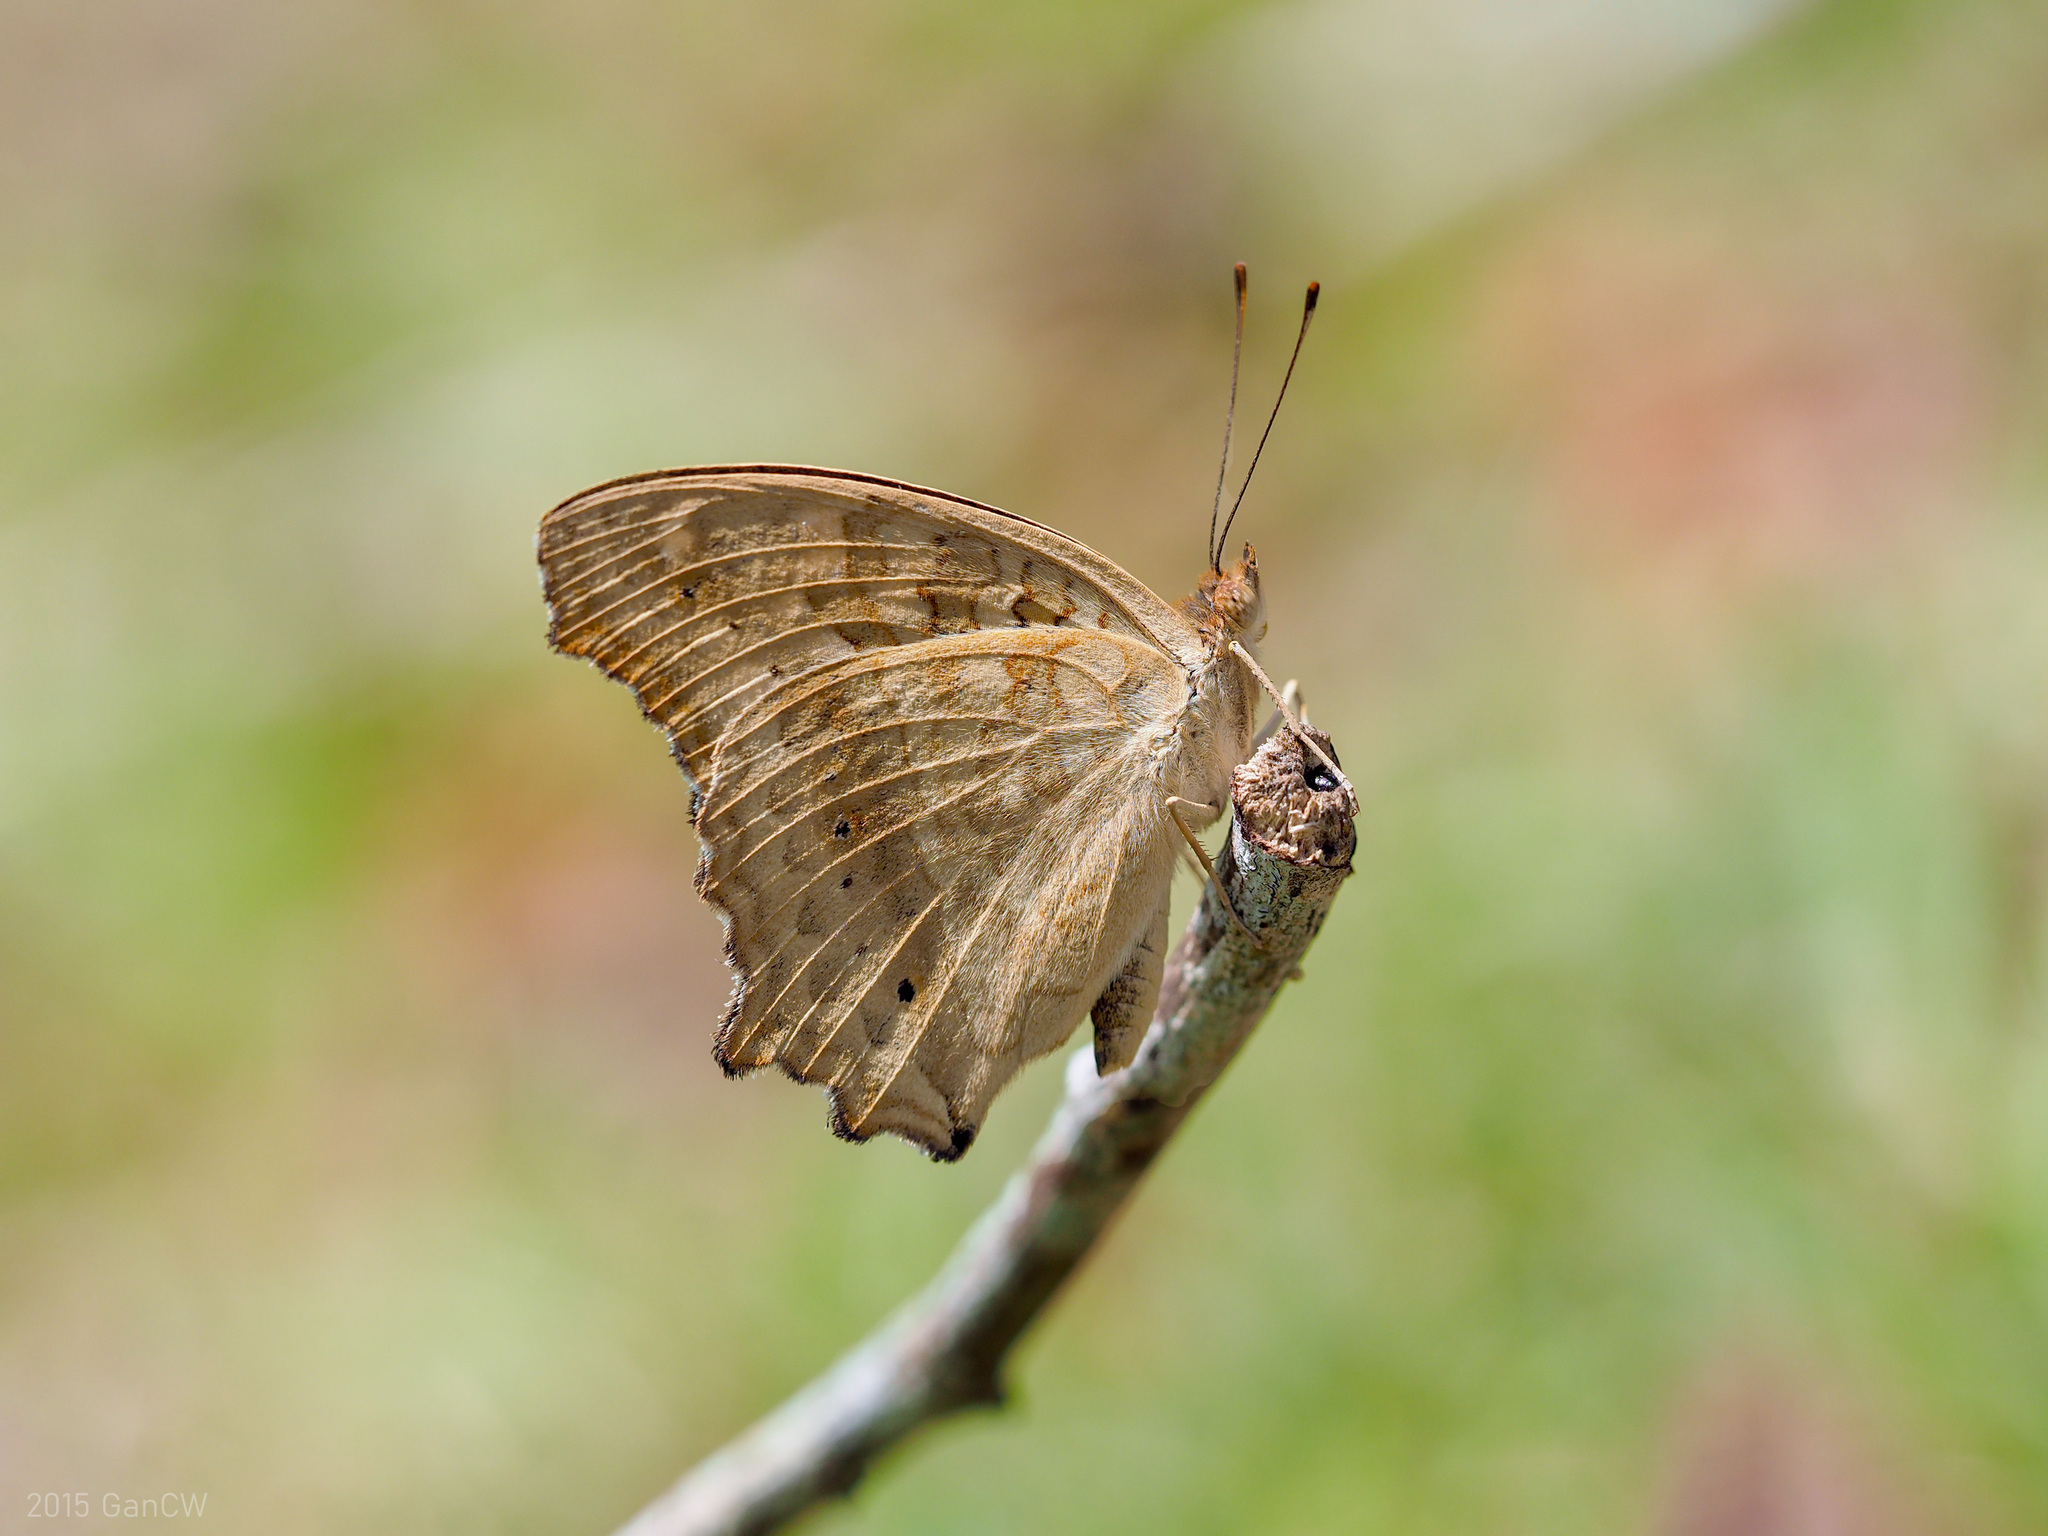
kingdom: Animalia
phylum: Arthropoda
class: Insecta
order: Lepidoptera
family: Nymphalidae
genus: Junonia
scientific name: Junonia lemonias
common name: Lemon pansy
